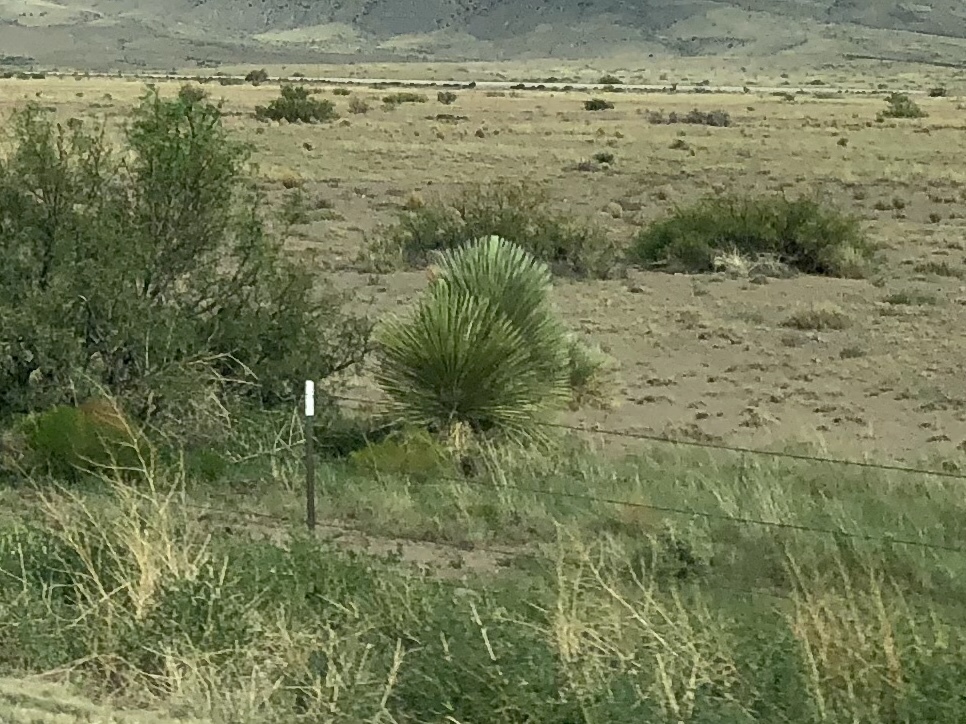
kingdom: Plantae
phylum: Tracheophyta
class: Liliopsida
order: Asparagales
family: Asparagaceae
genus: Yucca
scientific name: Yucca elata
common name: Palmella
